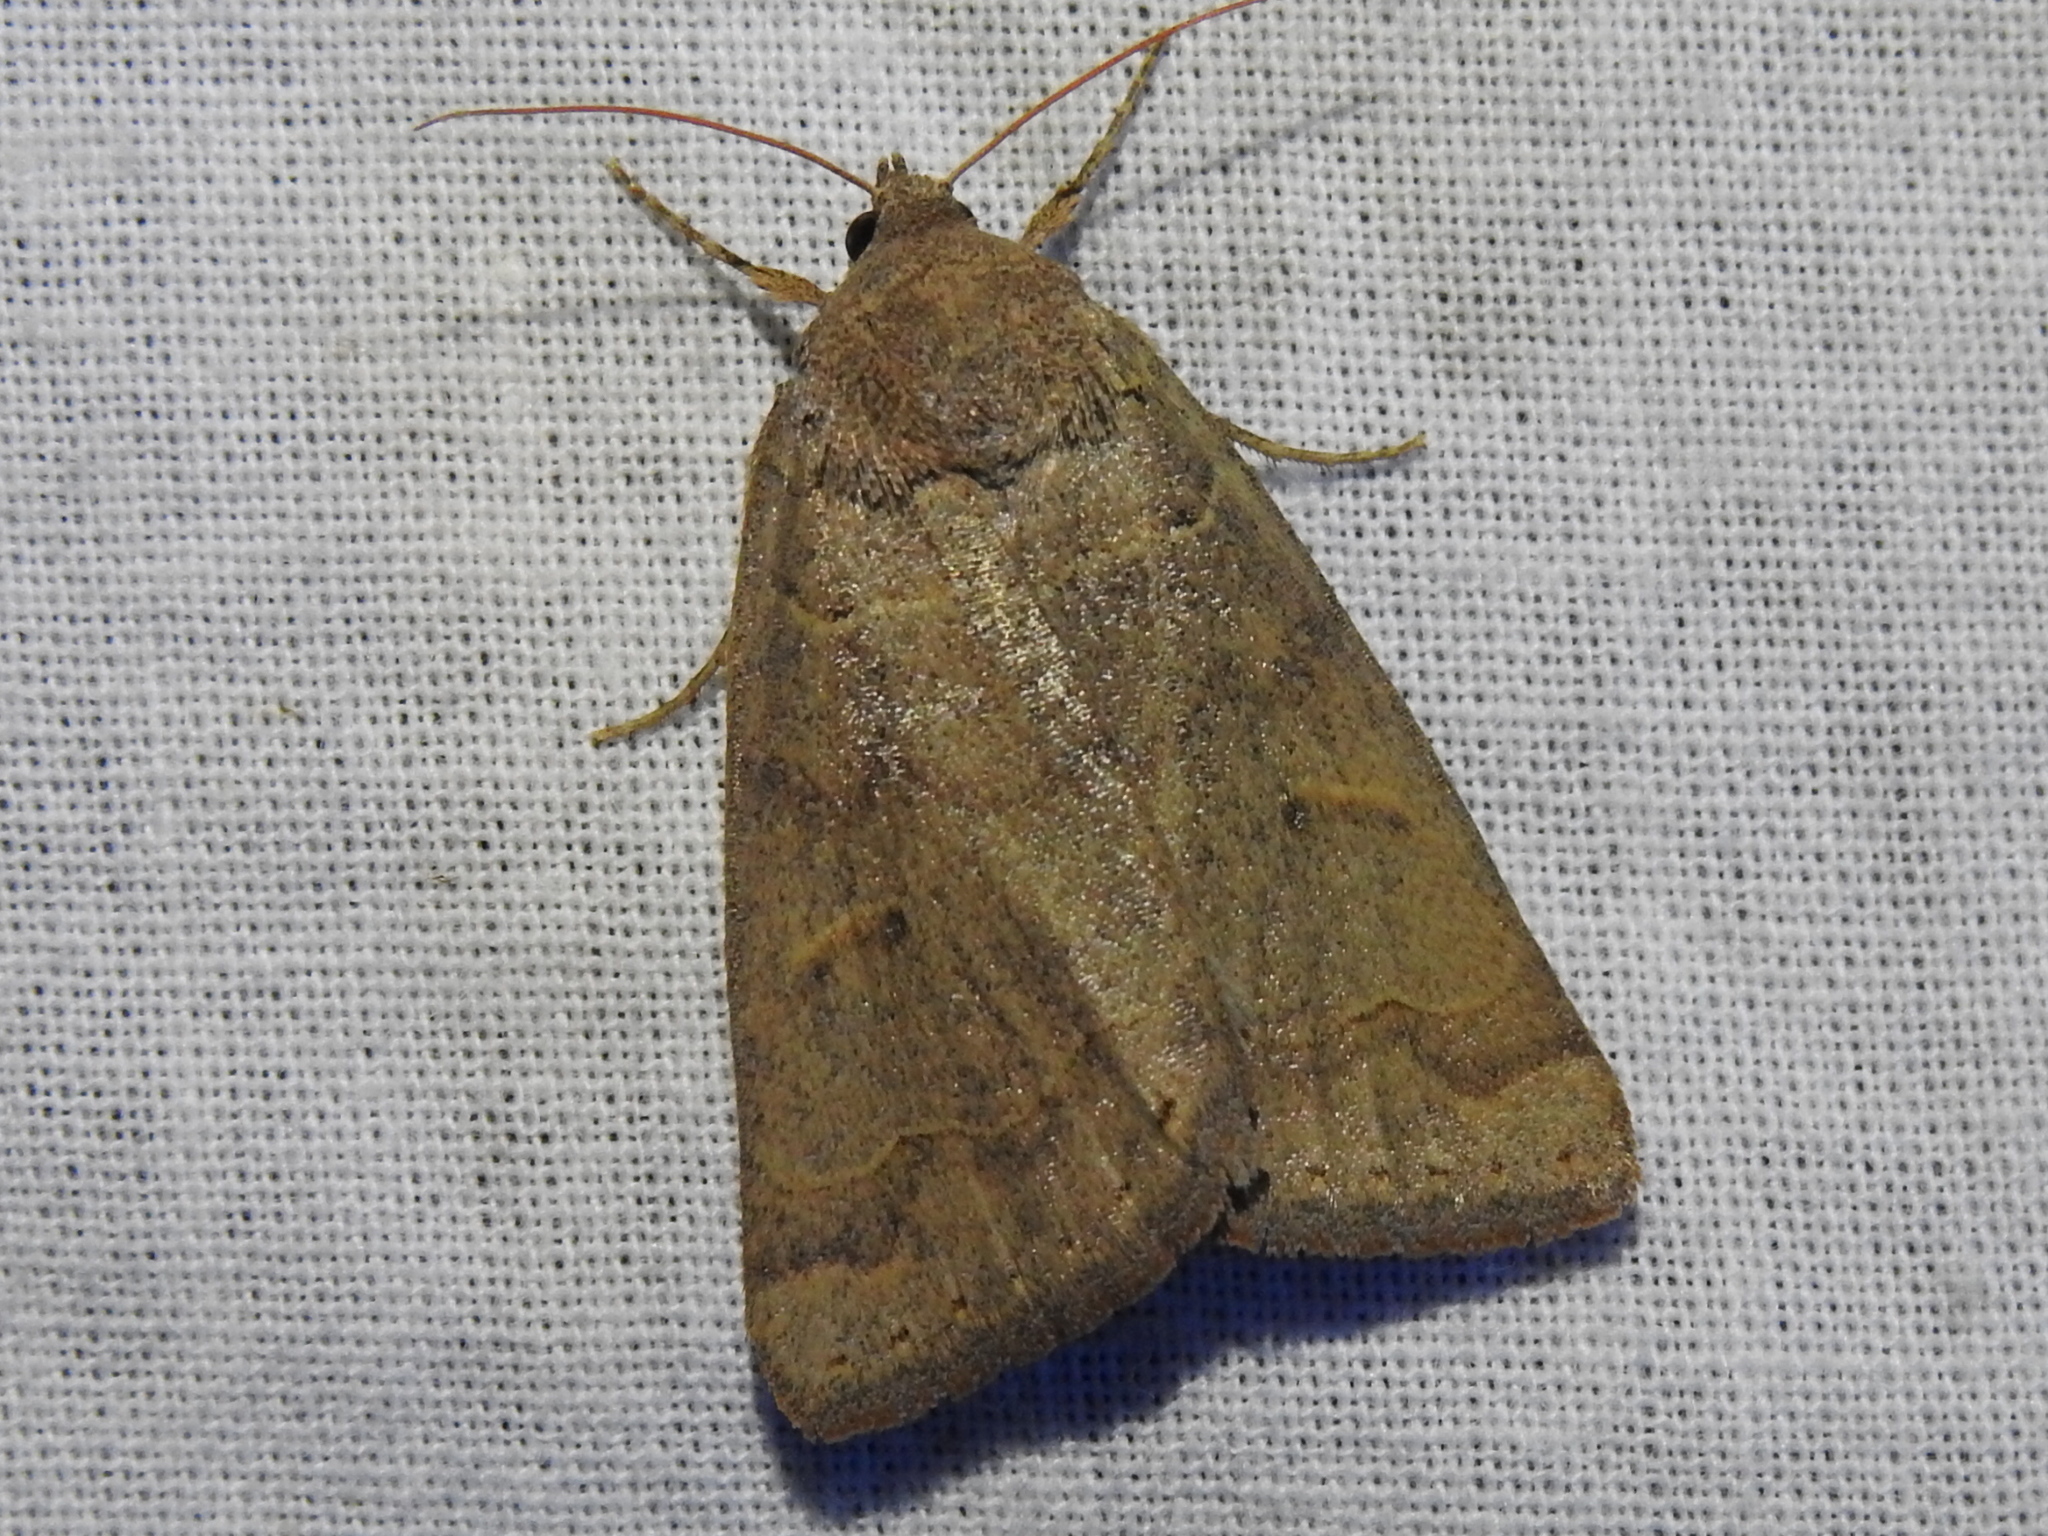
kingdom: Animalia
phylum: Arthropoda
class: Insecta
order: Lepidoptera
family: Erebidae
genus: Phoberia
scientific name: Phoberia atomaris
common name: Common oak moth
